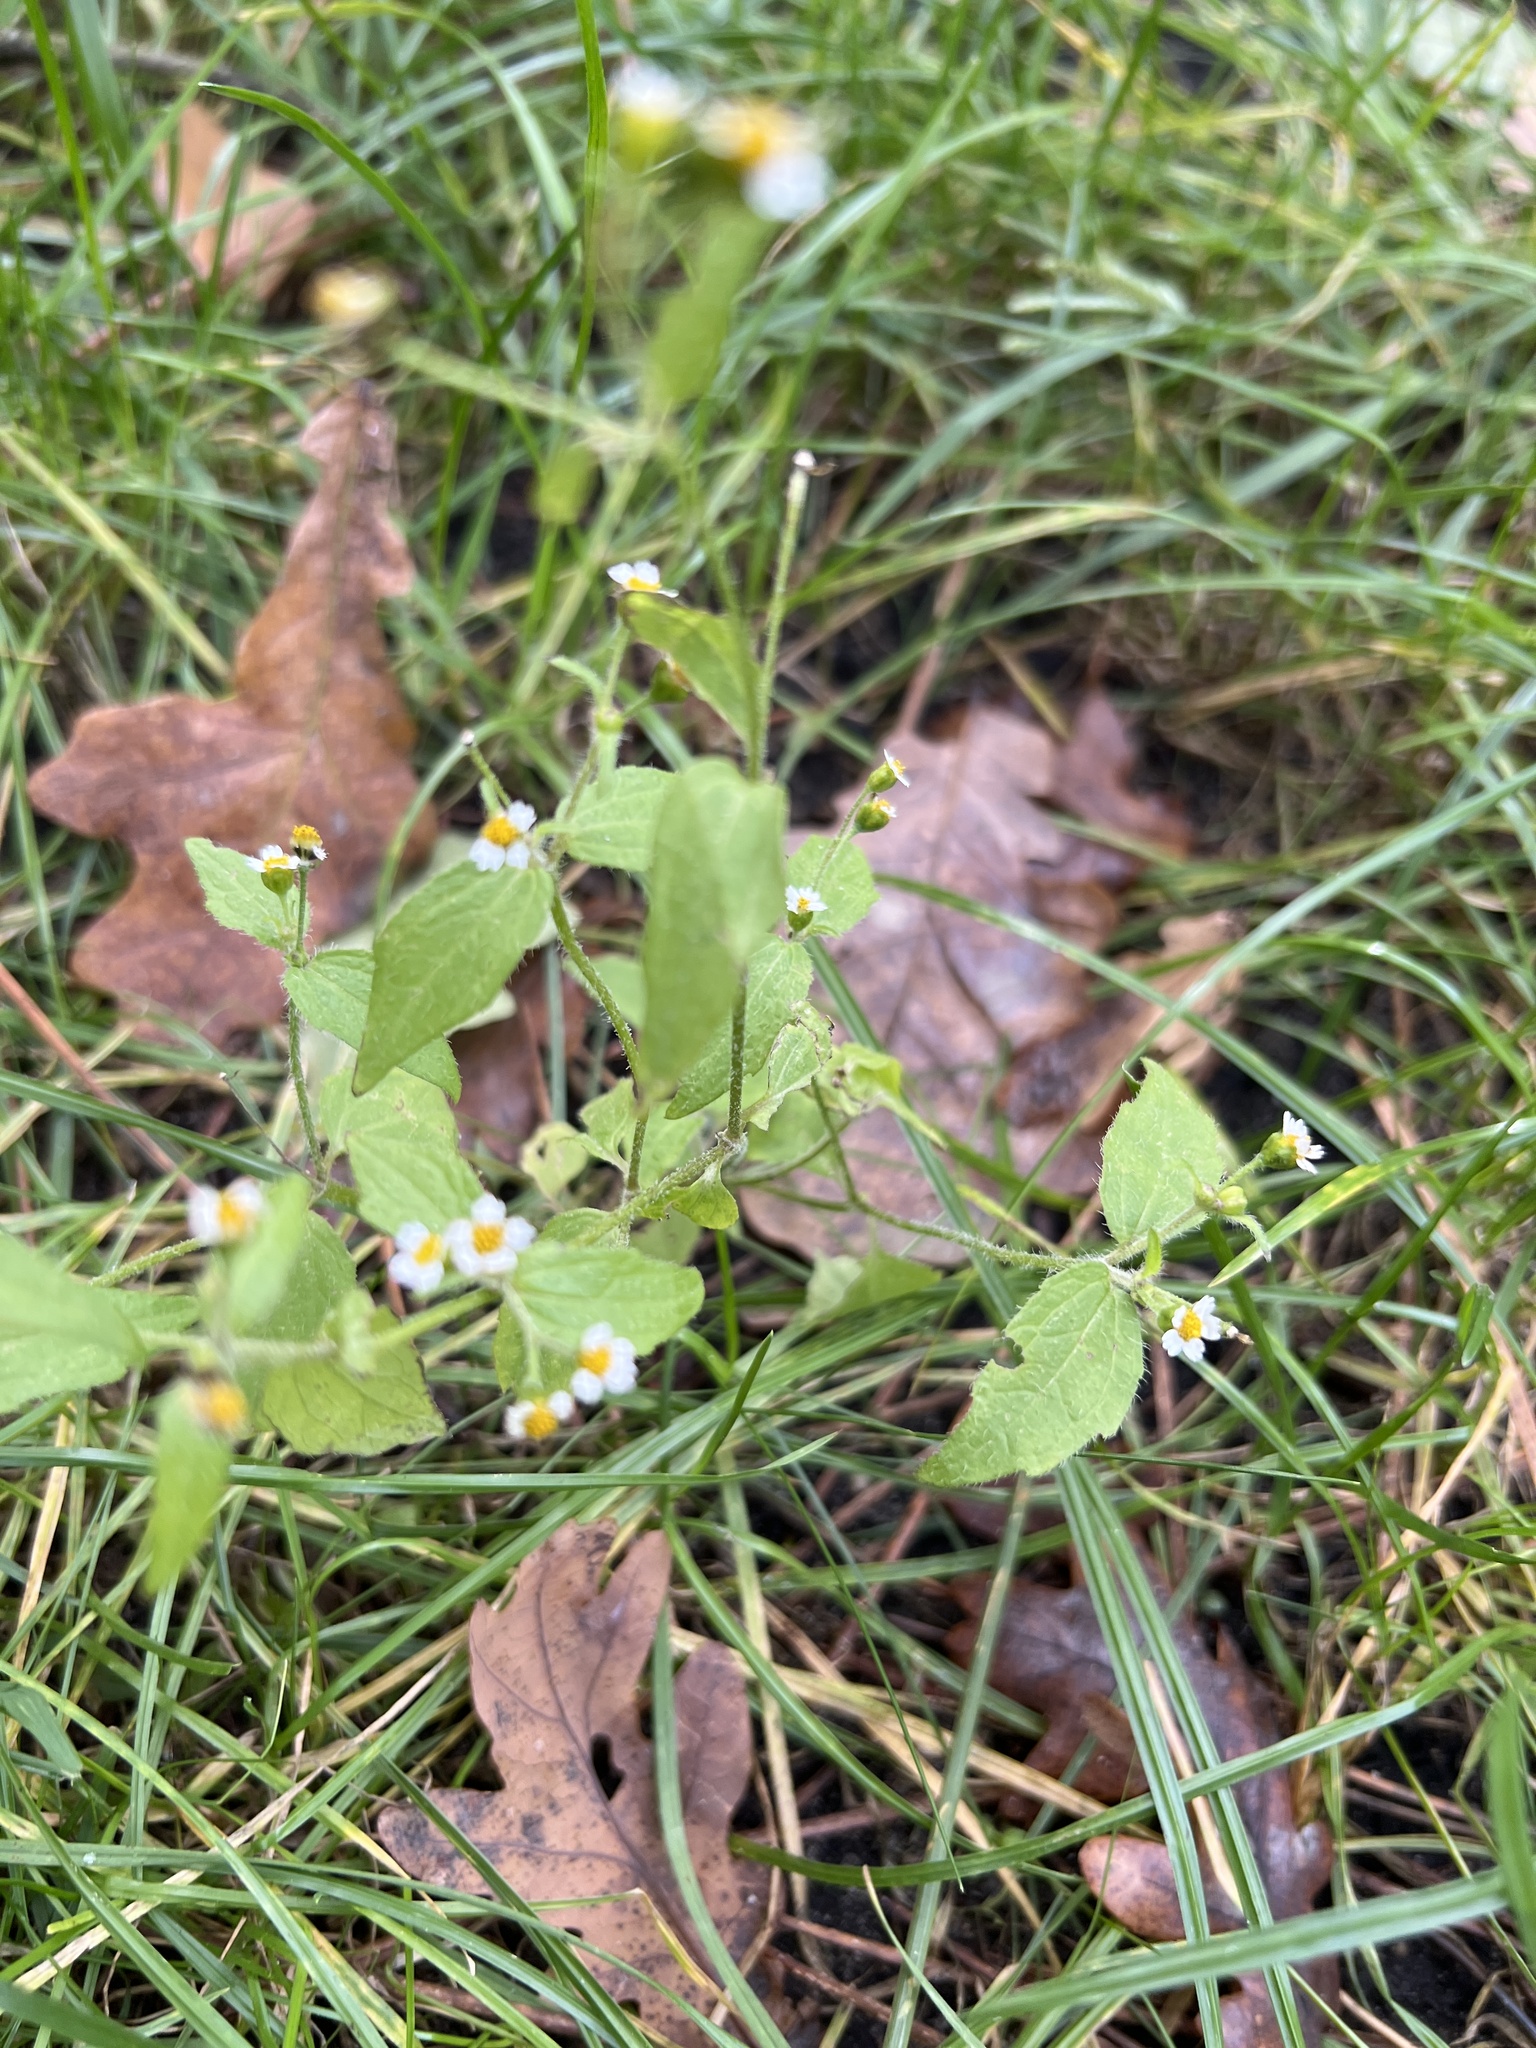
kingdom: Plantae
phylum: Tracheophyta
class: Magnoliopsida
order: Asterales
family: Asteraceae
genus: Galinsoga
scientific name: Galinsoga quadriradiata
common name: Shaggy soldier
